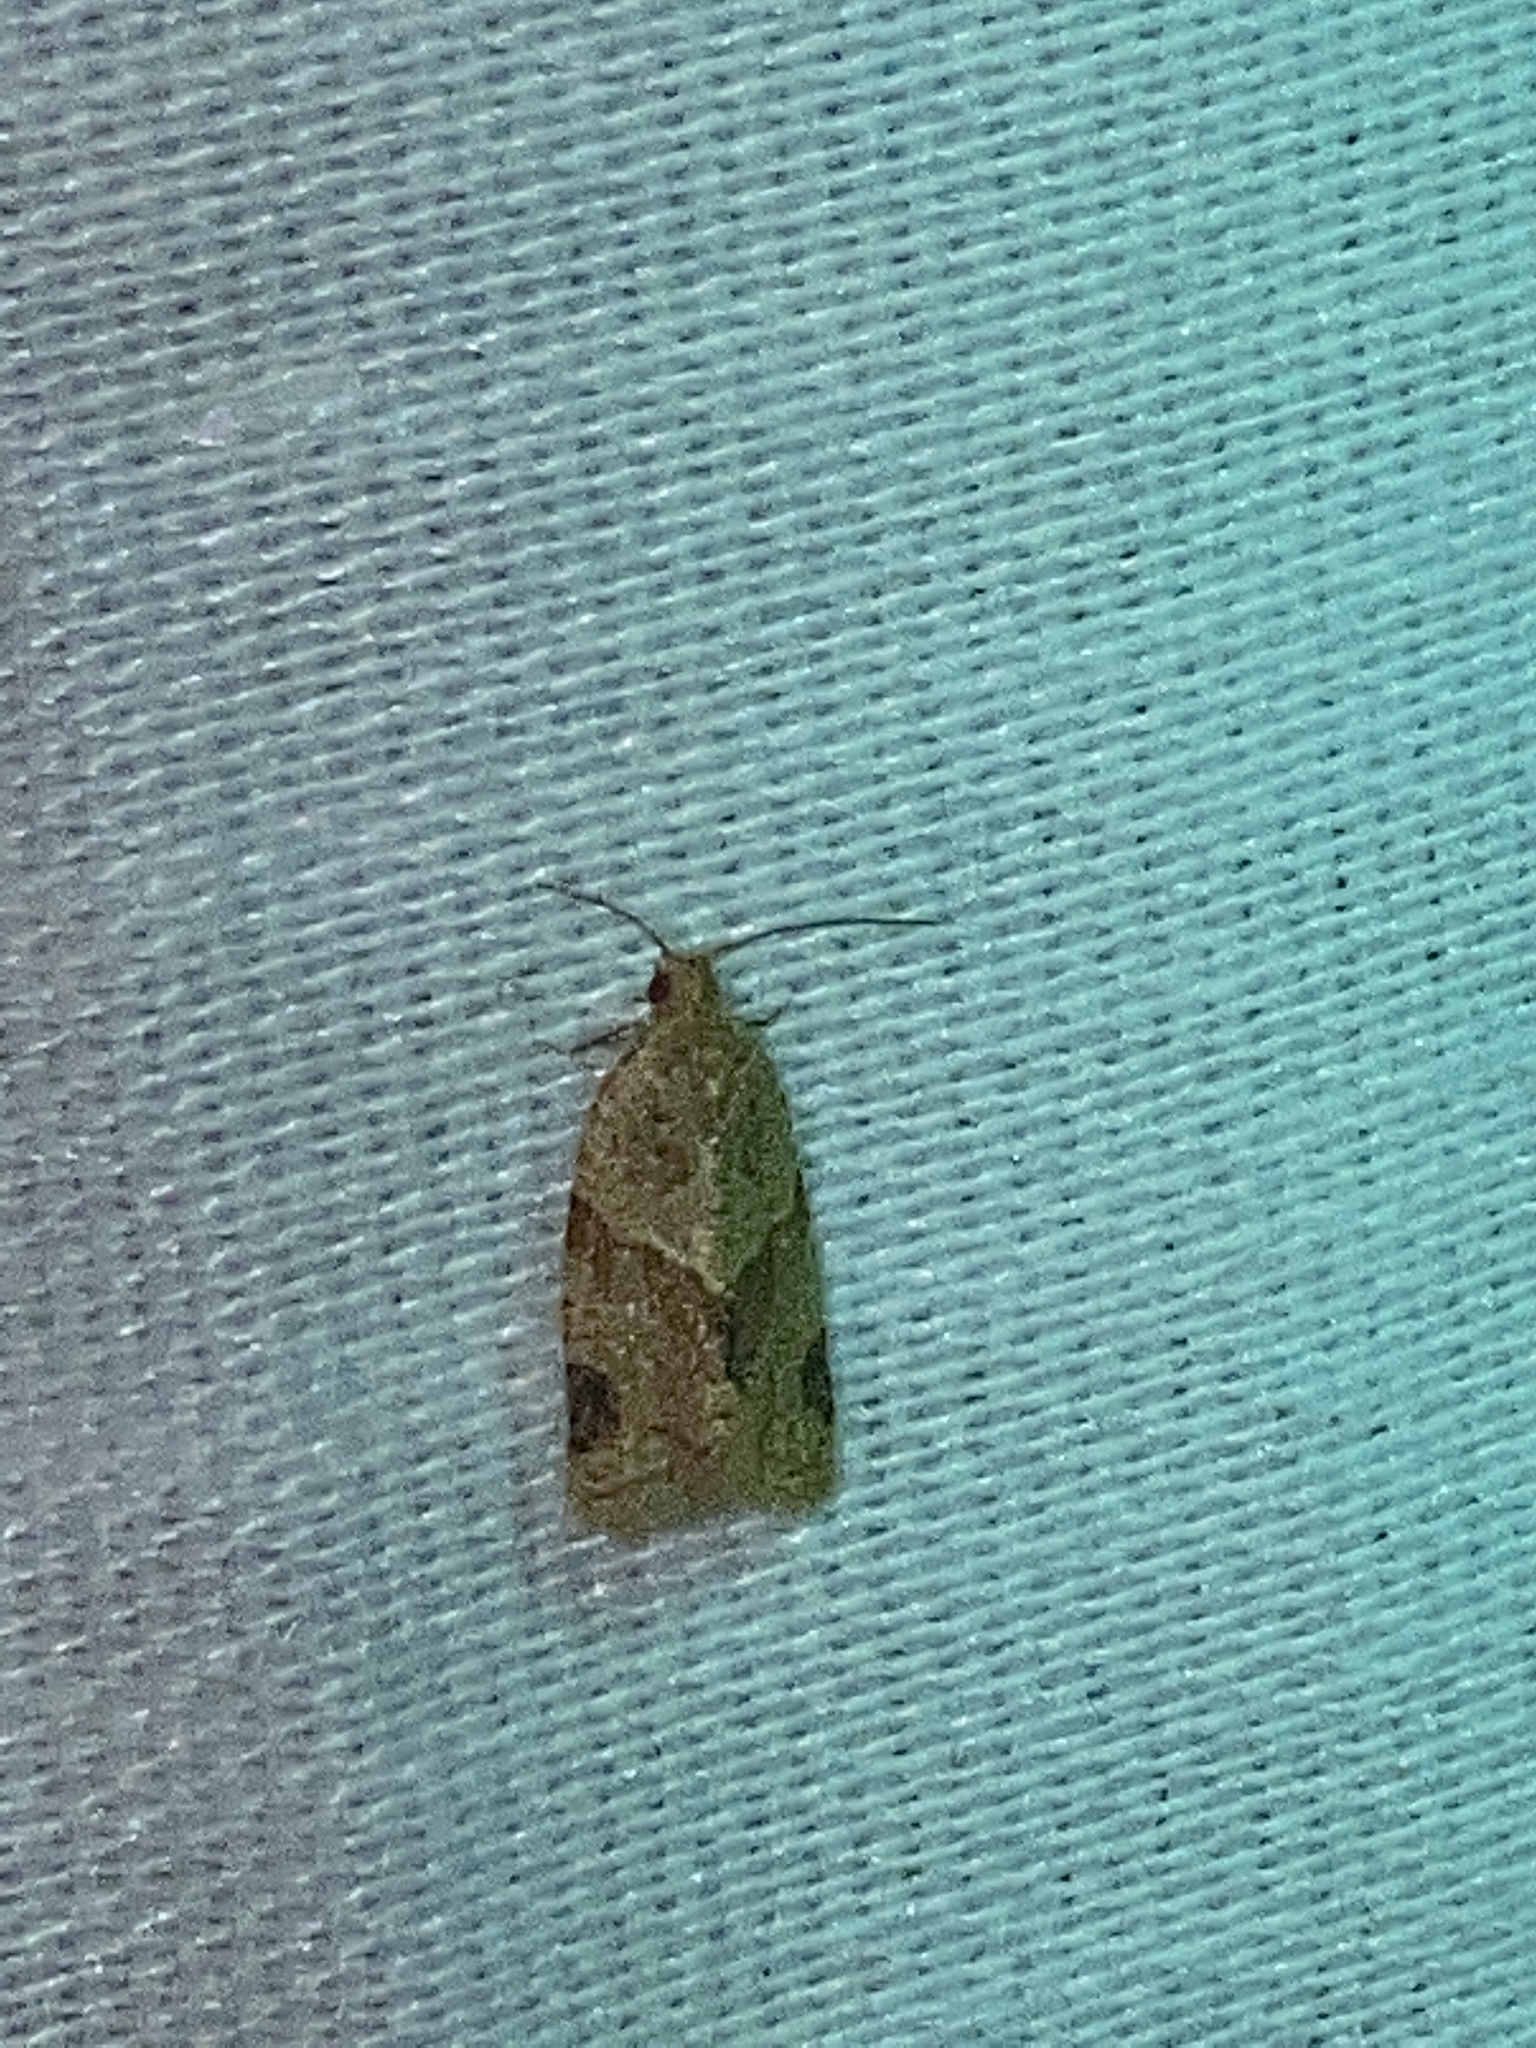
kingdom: Animalia
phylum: Arthropoda
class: Insecta
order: Lepidoptera
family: Tortricidae
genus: Clepsis
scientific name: Clepsis peritana
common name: Garden tortrix
